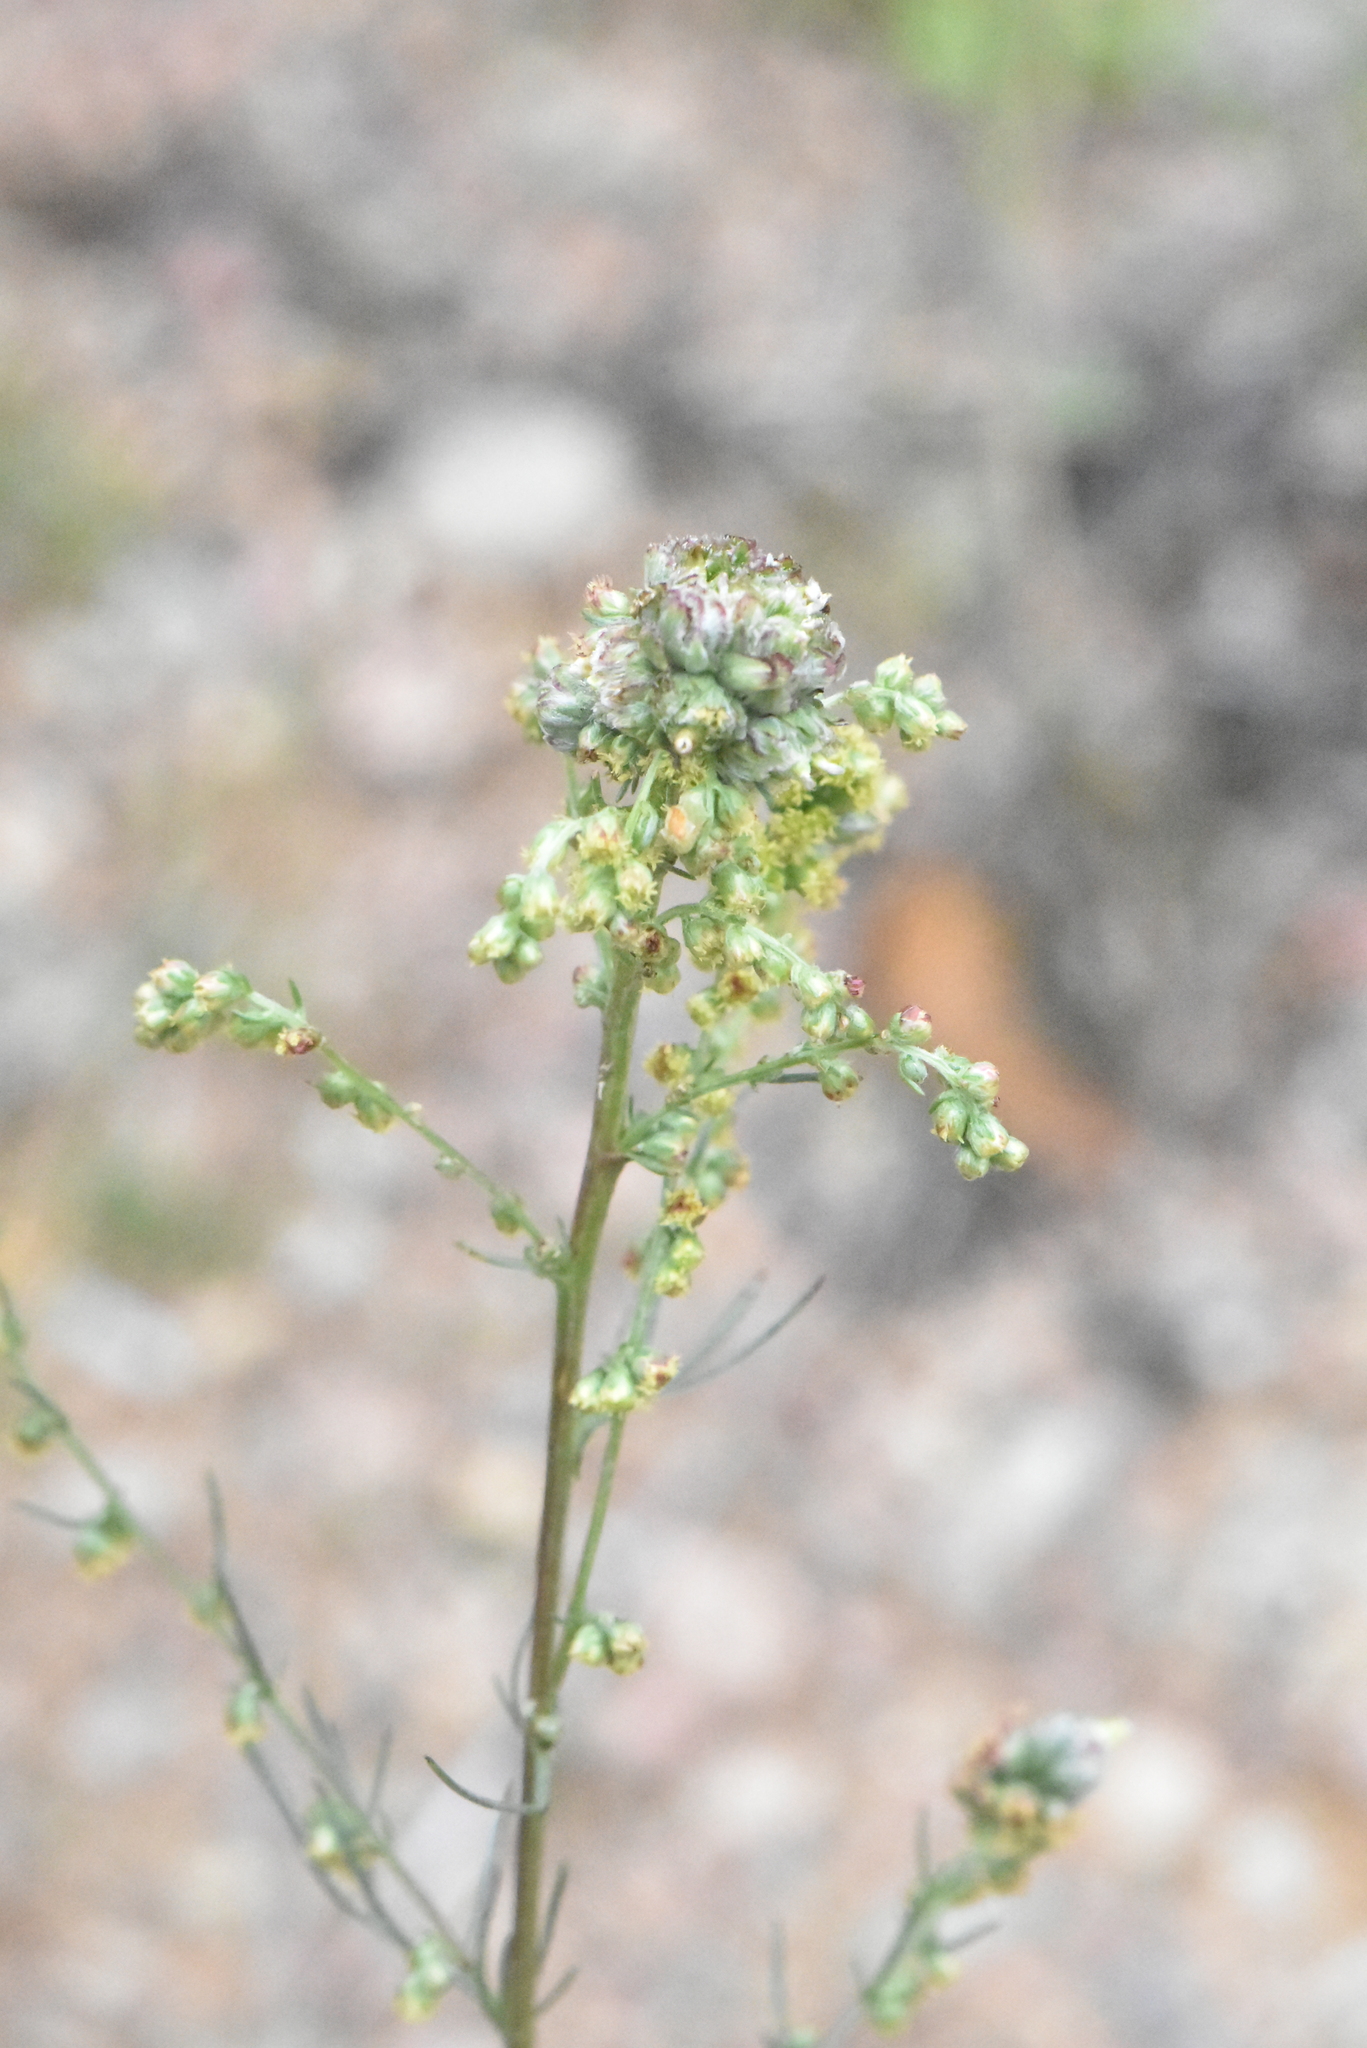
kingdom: Plantae
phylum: Tracheophyta
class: Magnoliopsida
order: Asterales
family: Asteraceae
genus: Artemisia
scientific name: Artemisia campestris
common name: Field wormwood
